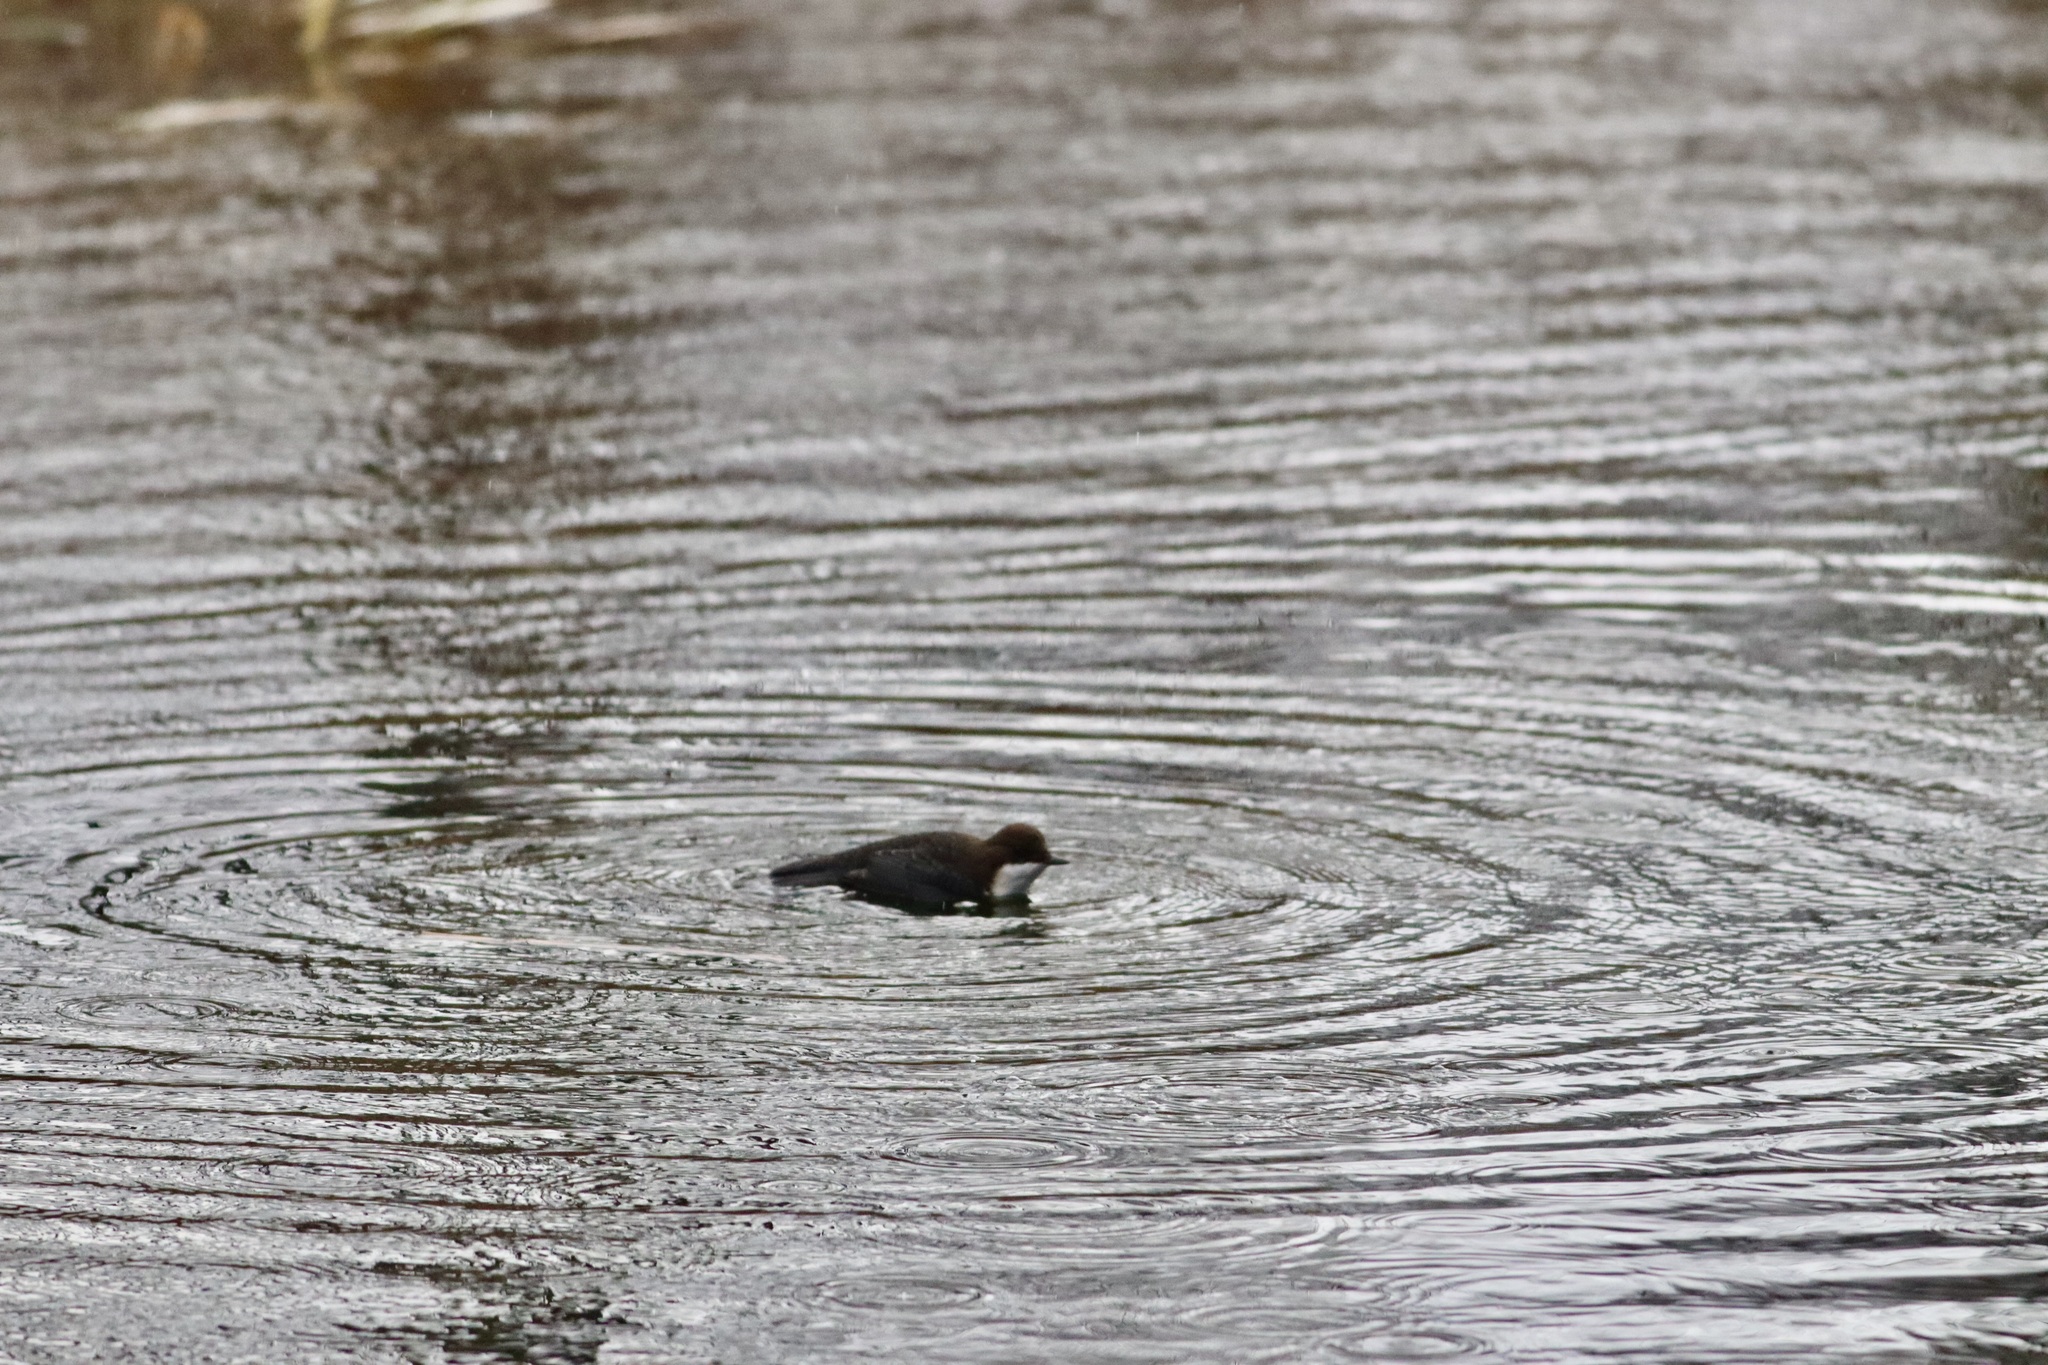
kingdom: Animalia
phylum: Chordata
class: Aves
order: Passeriformes
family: Cinclidae
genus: Cinclus
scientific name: Cinclus cinclus
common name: White-throated dipper
